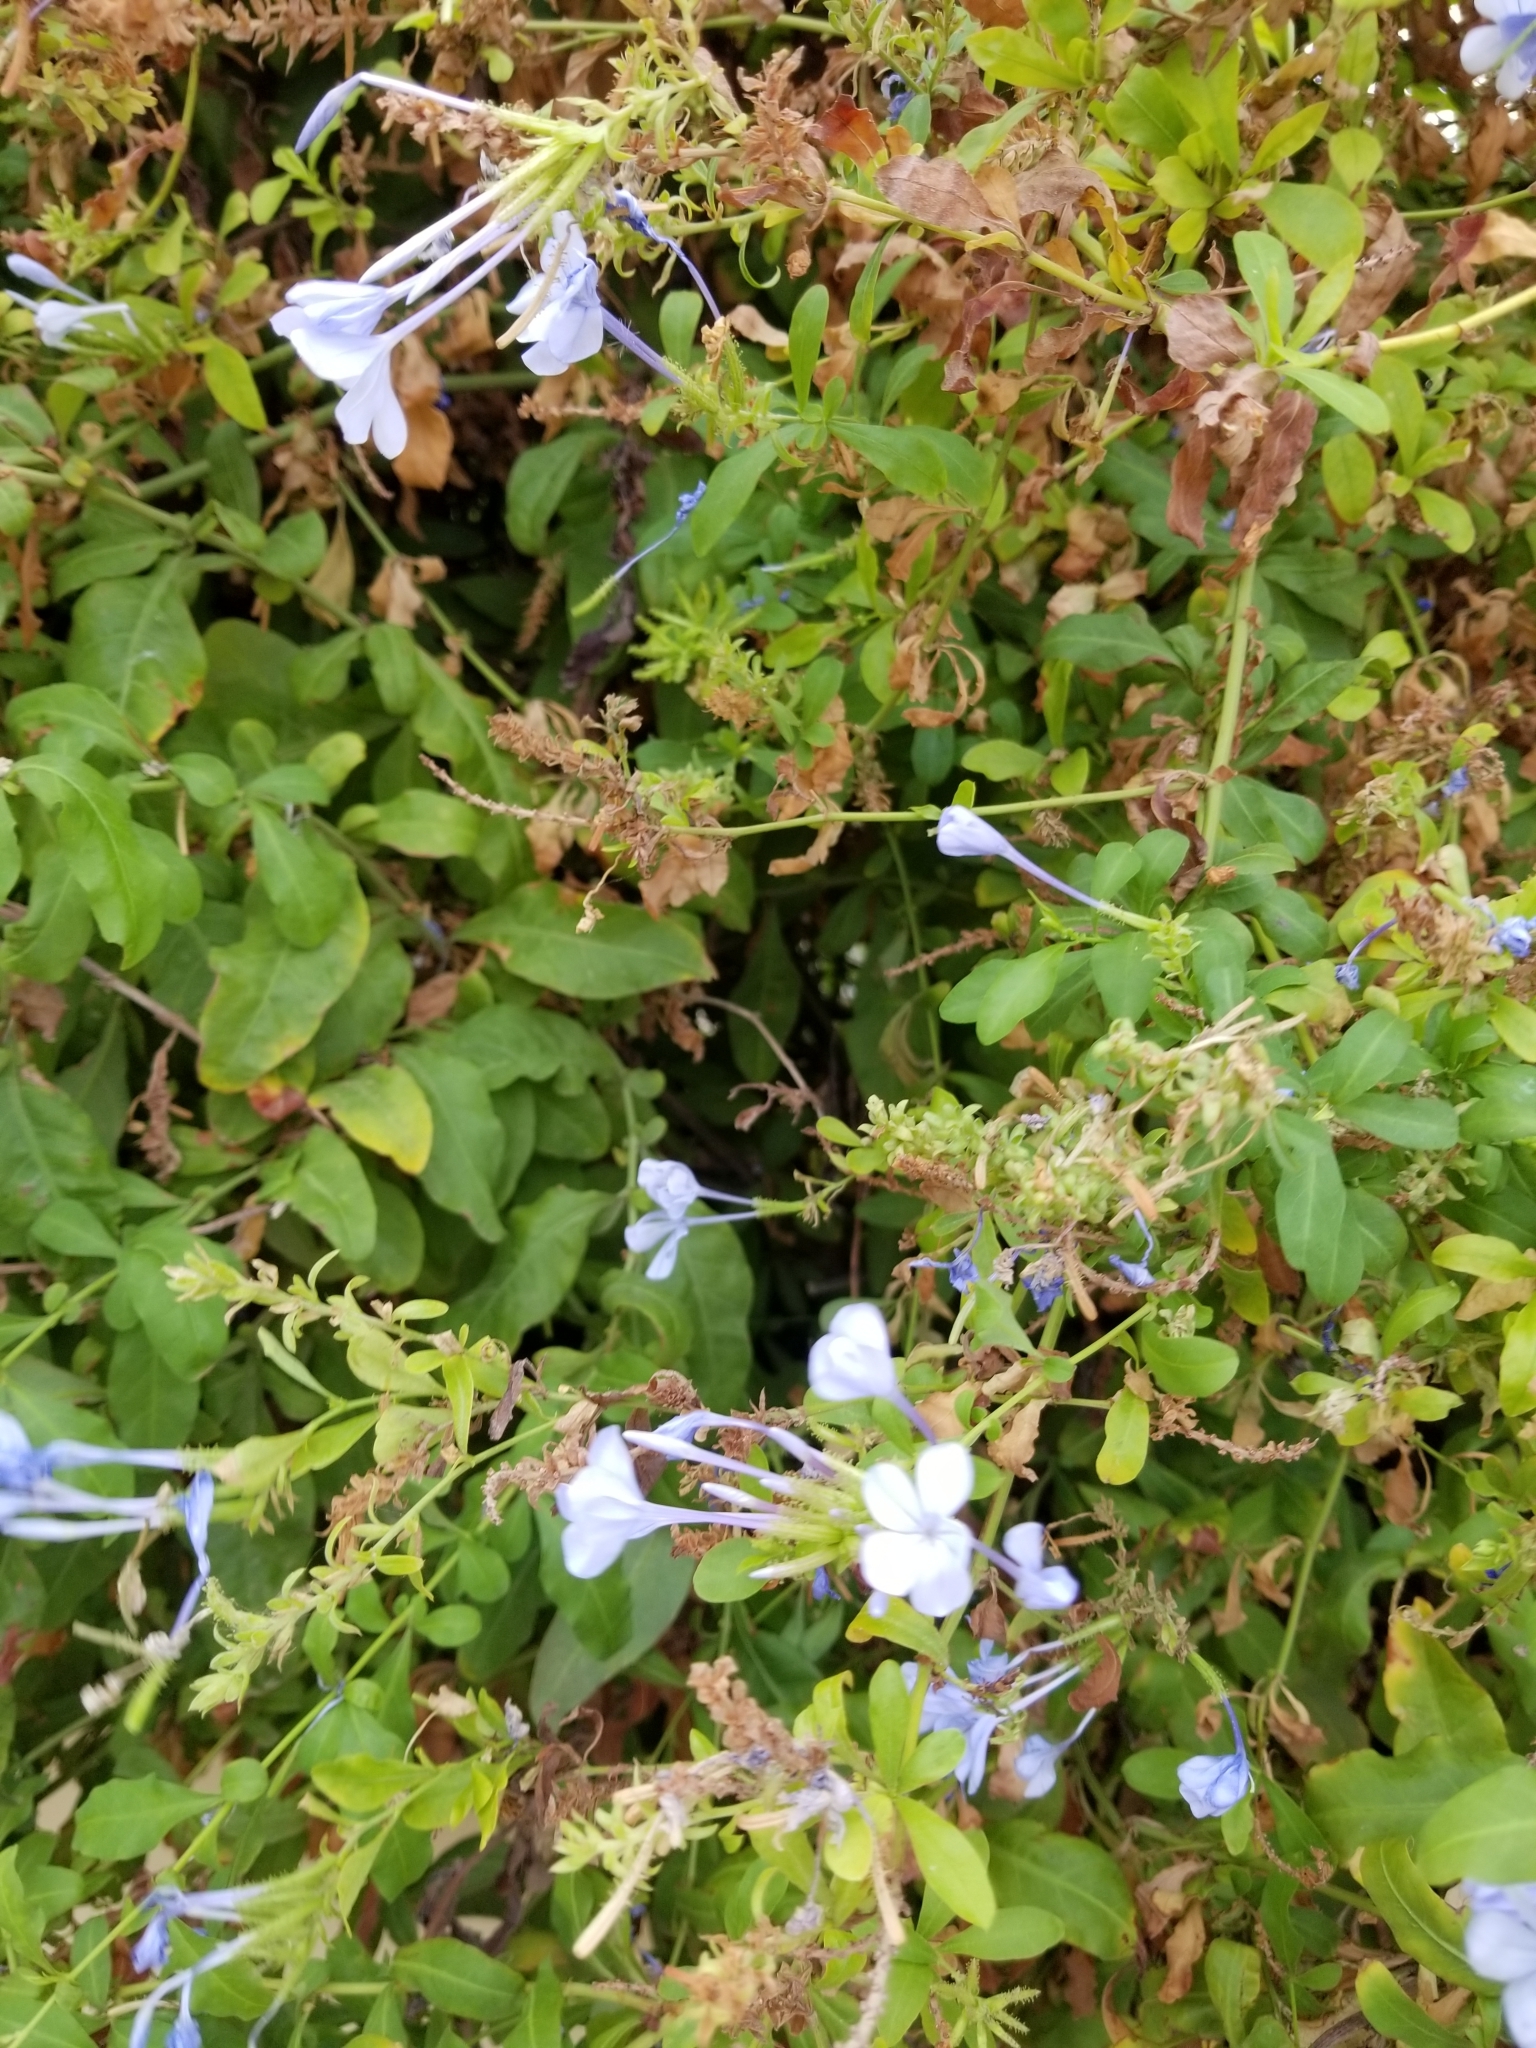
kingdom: Plantae
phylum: Tracheophyta
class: Magnoliopsida
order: Caryophyllales
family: Plumbaginaceae
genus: Plumbago
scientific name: Plumbago auriculata
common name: Cape leadwort
